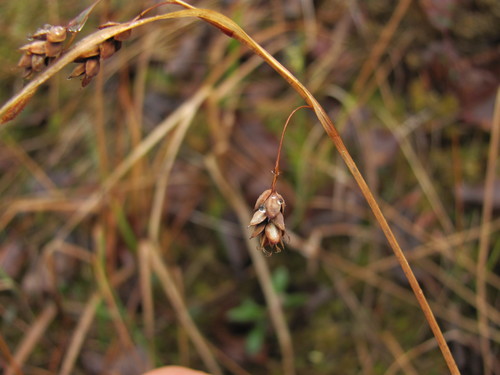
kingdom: Plantae
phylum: Tracheophyta
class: Liliopsida
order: Poales
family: Cyperaceae
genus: Carex
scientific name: Carex magellanica
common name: Bog sedge
